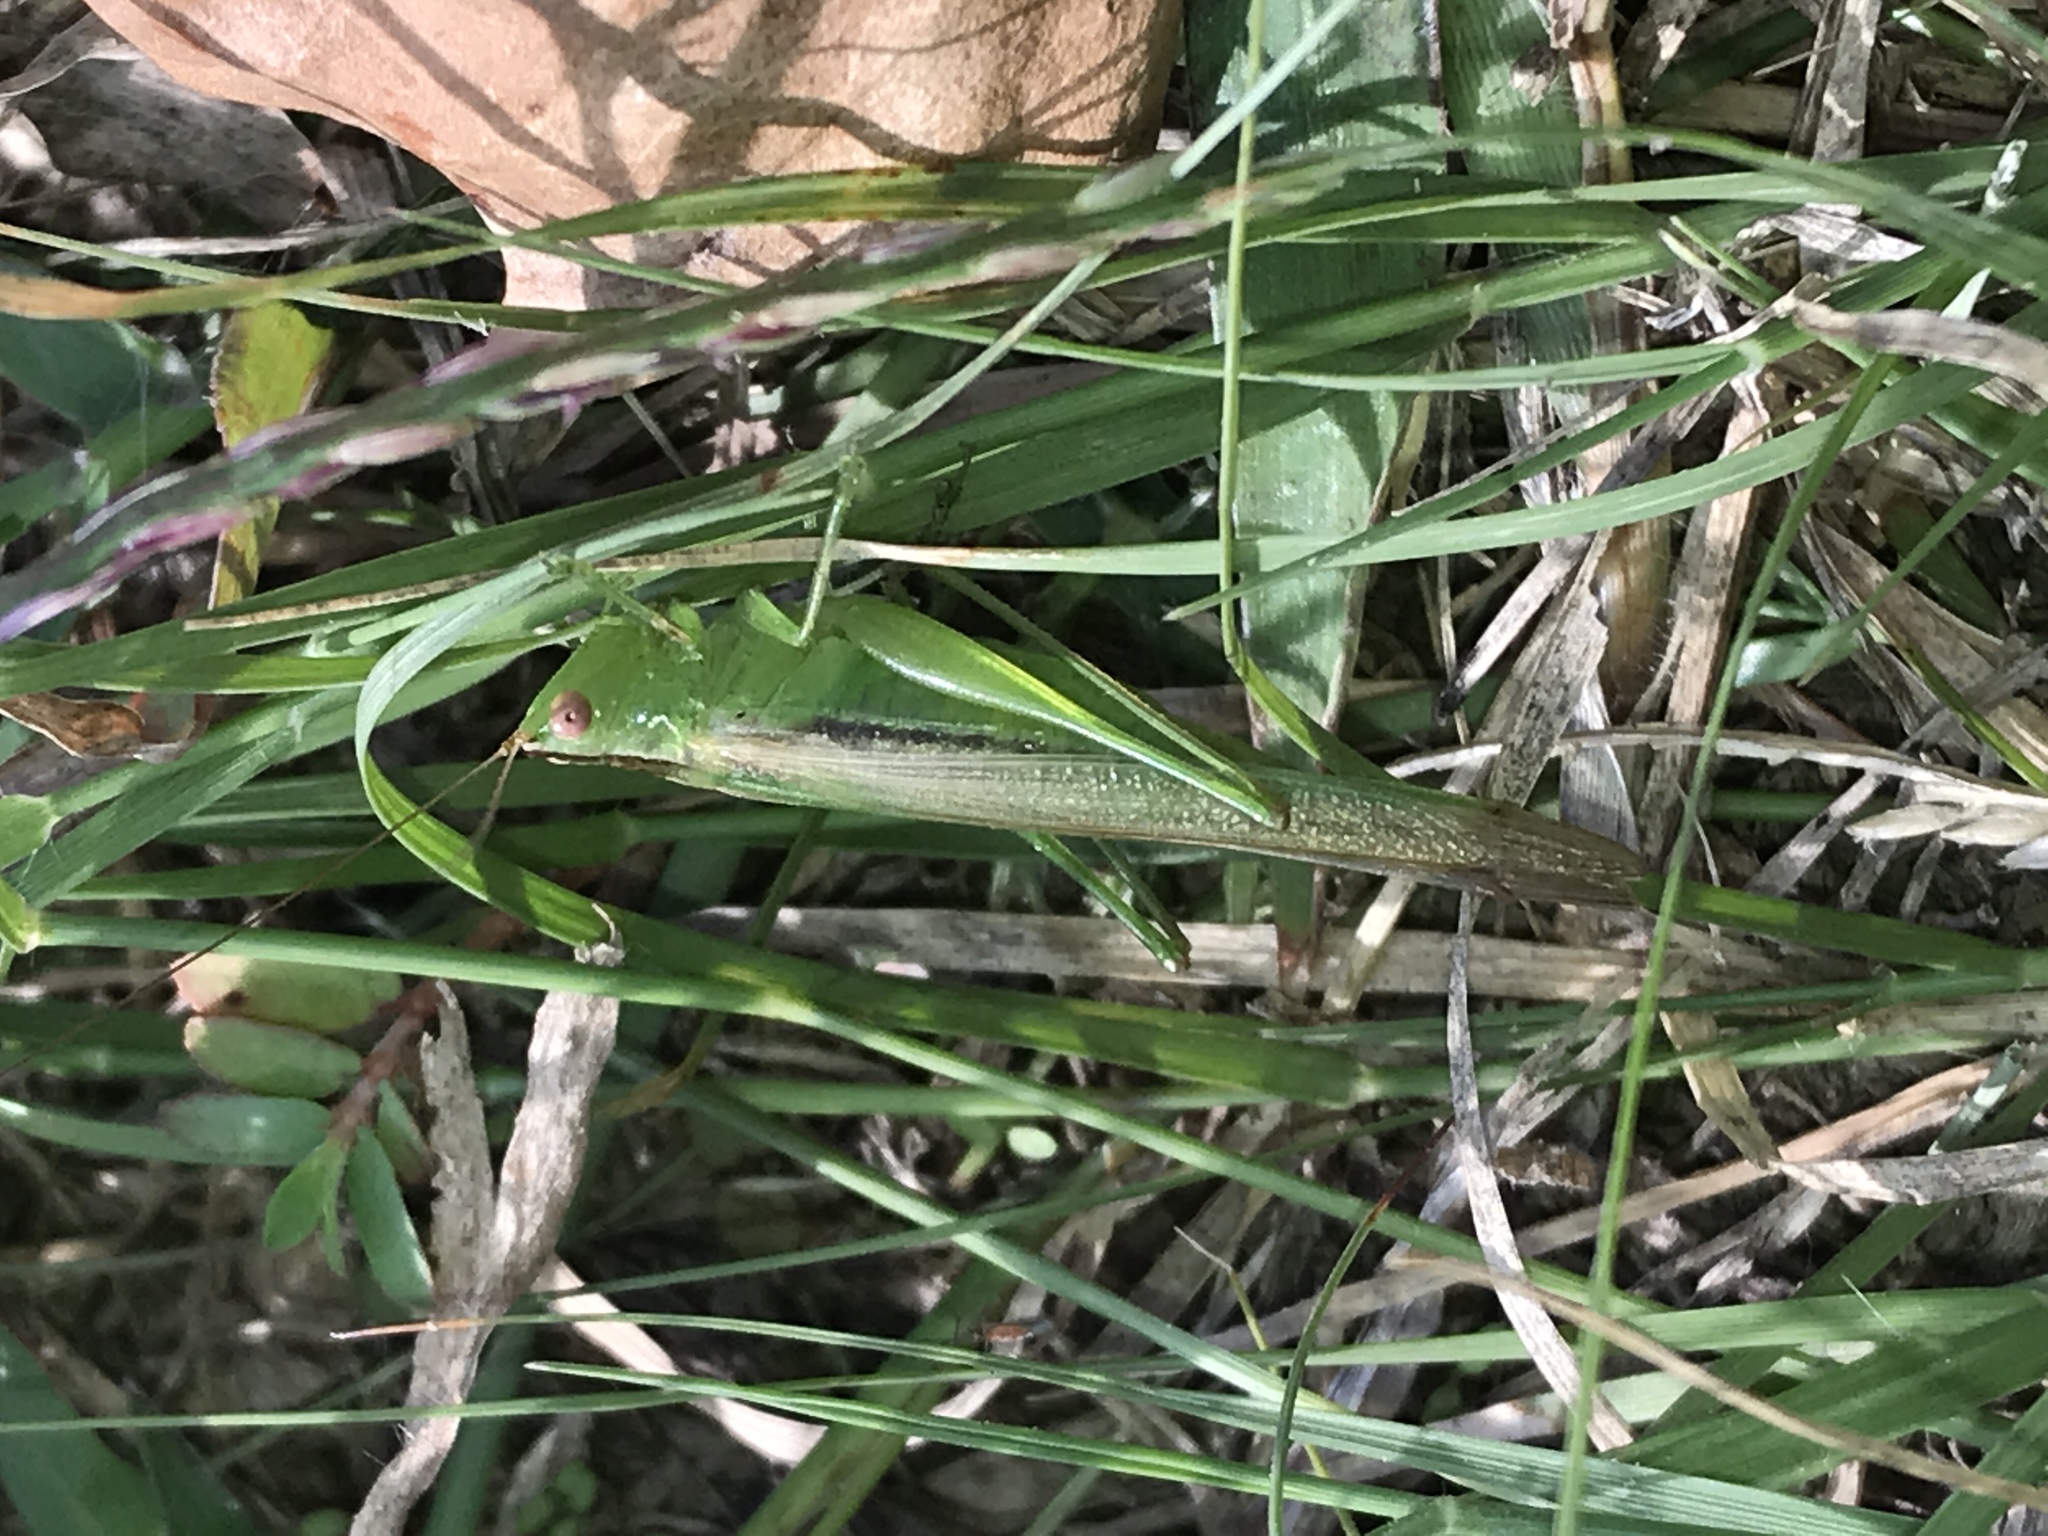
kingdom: Animalia
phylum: Arthropoda
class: Insecta
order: Orthoptera
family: Tettigoniidae
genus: Conocephalus
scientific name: Conocephalus fasciatus
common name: Slender meadow katydid
